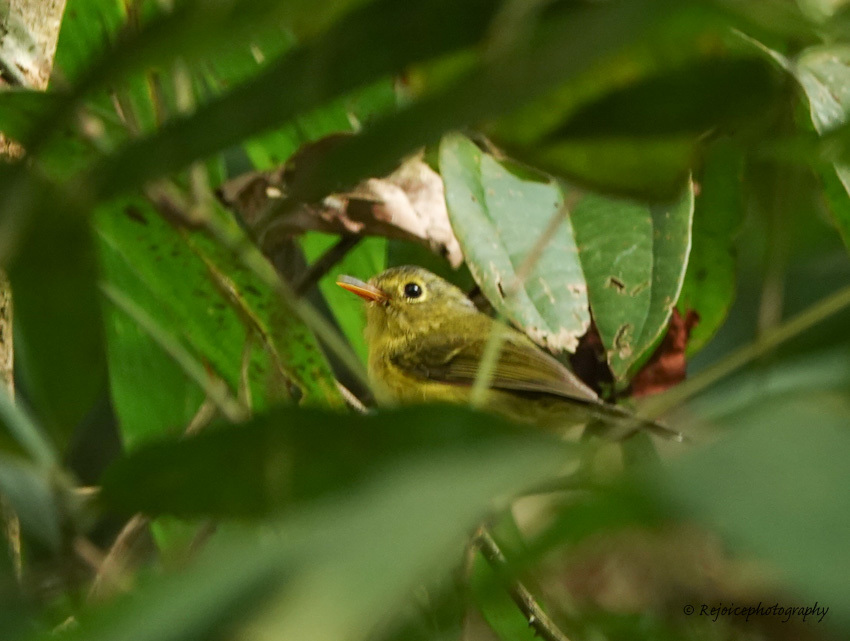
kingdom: Animalia
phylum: Chordata
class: Aves
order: Passeriformes
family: Phylloscopidae
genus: Seicercus
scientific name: Seicercus burkii
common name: Green-crowned warbler
